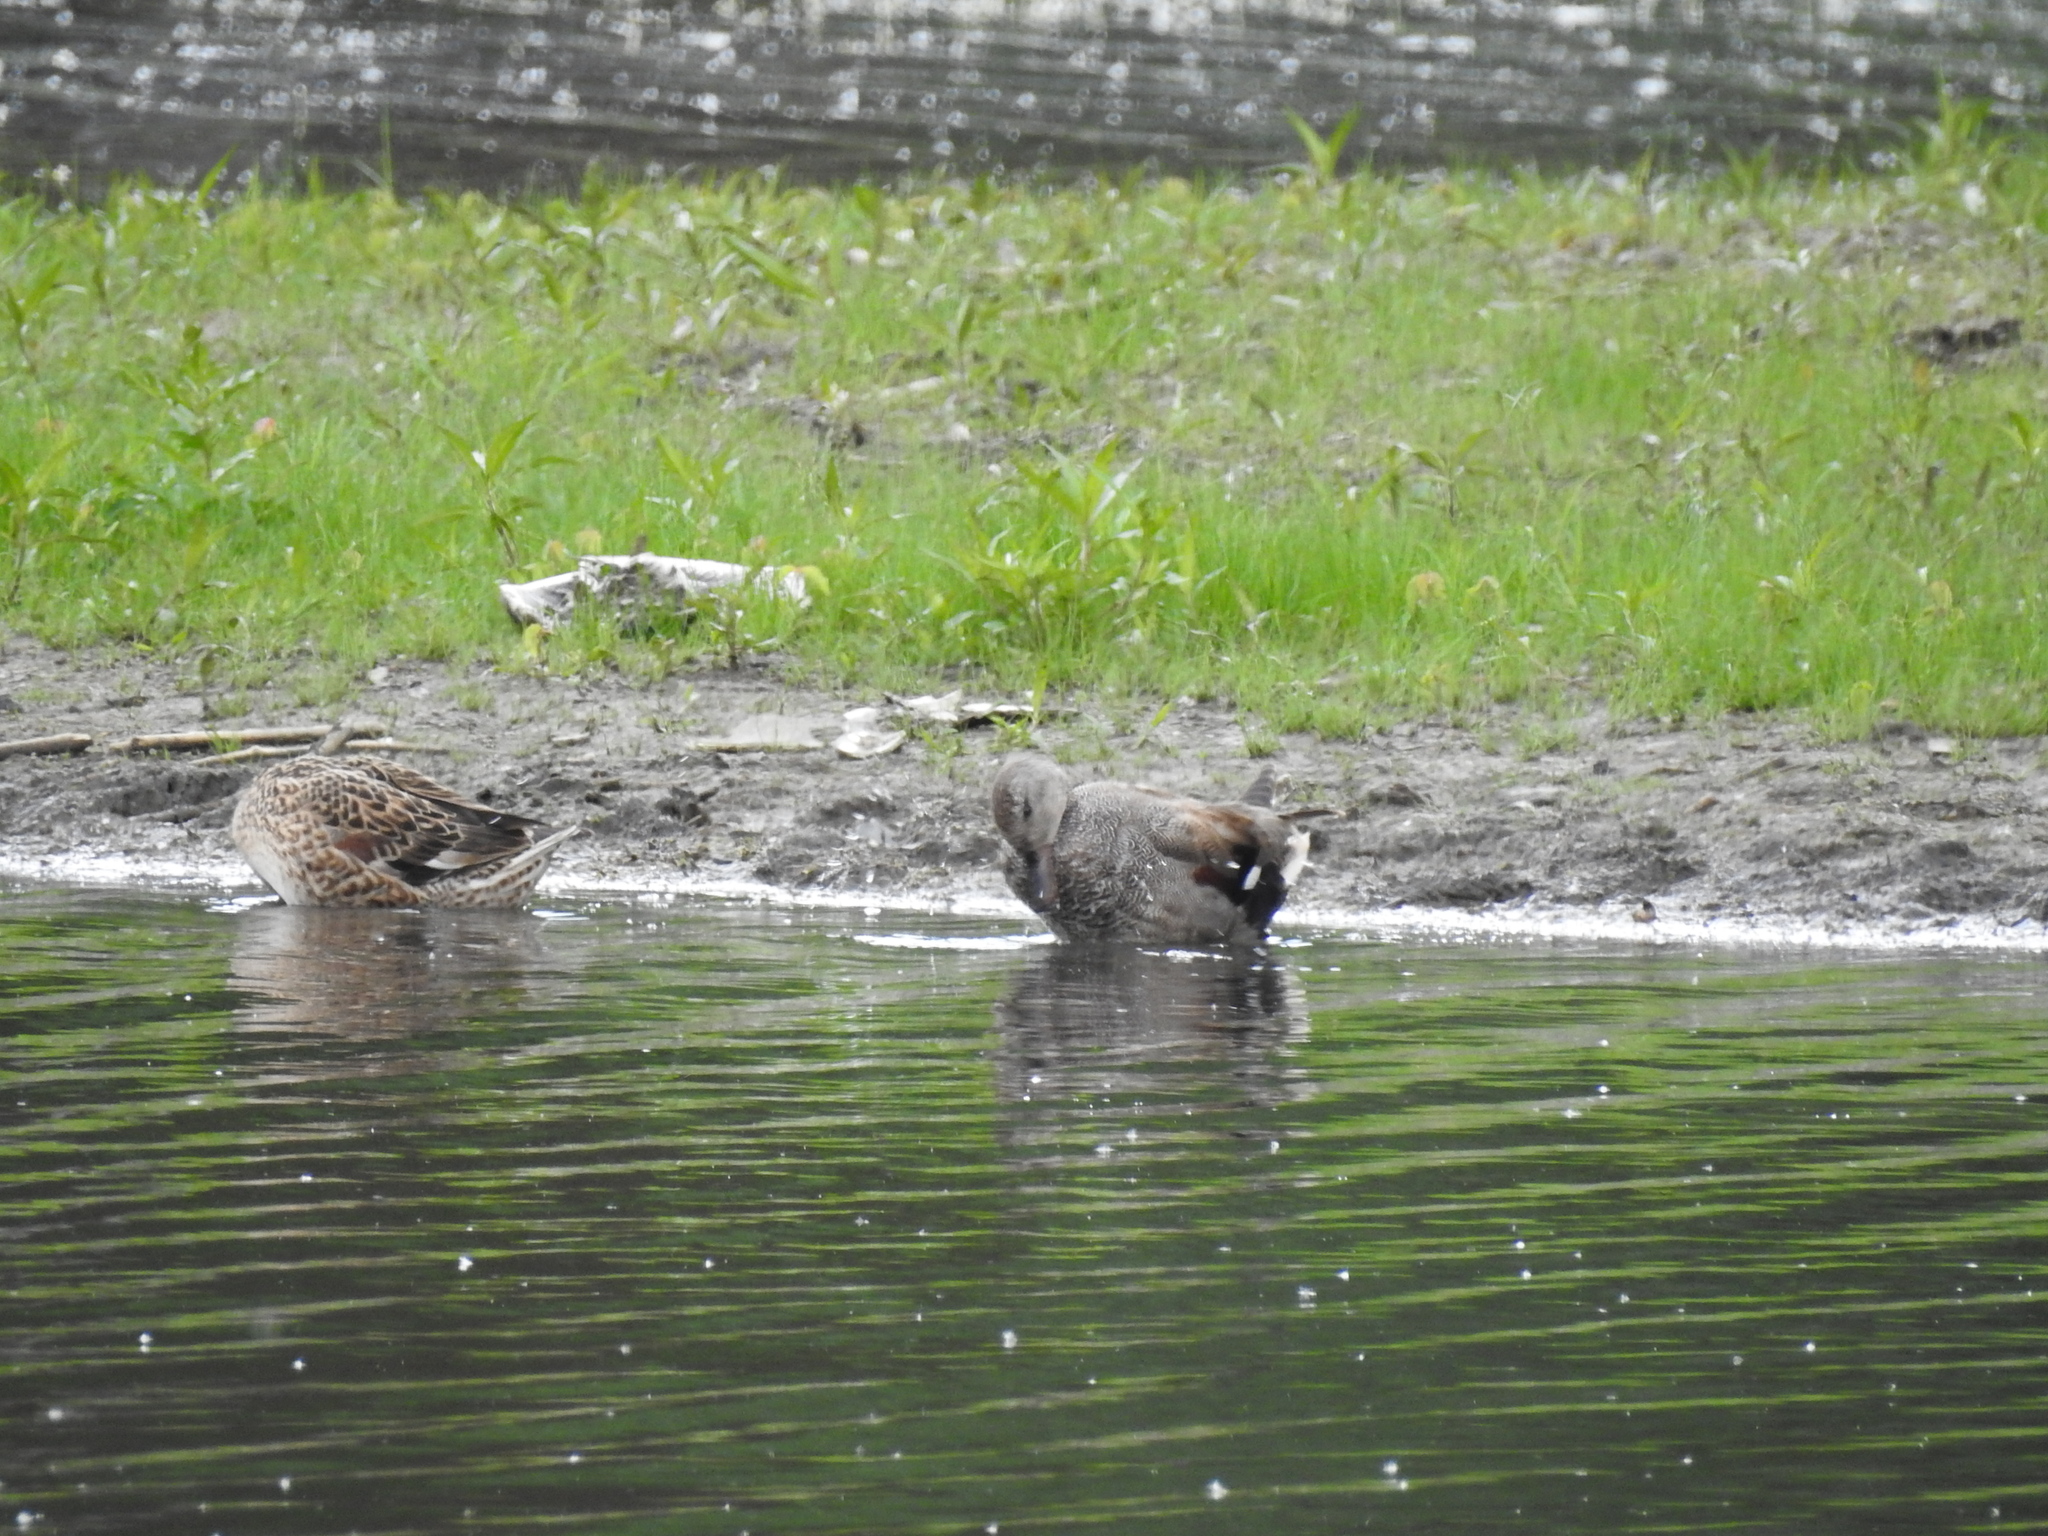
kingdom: Animalia
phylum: Chordata
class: Aves
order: Anseriformes
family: Anatidae
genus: Mareca
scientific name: Mareca strepera
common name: Gadwall
